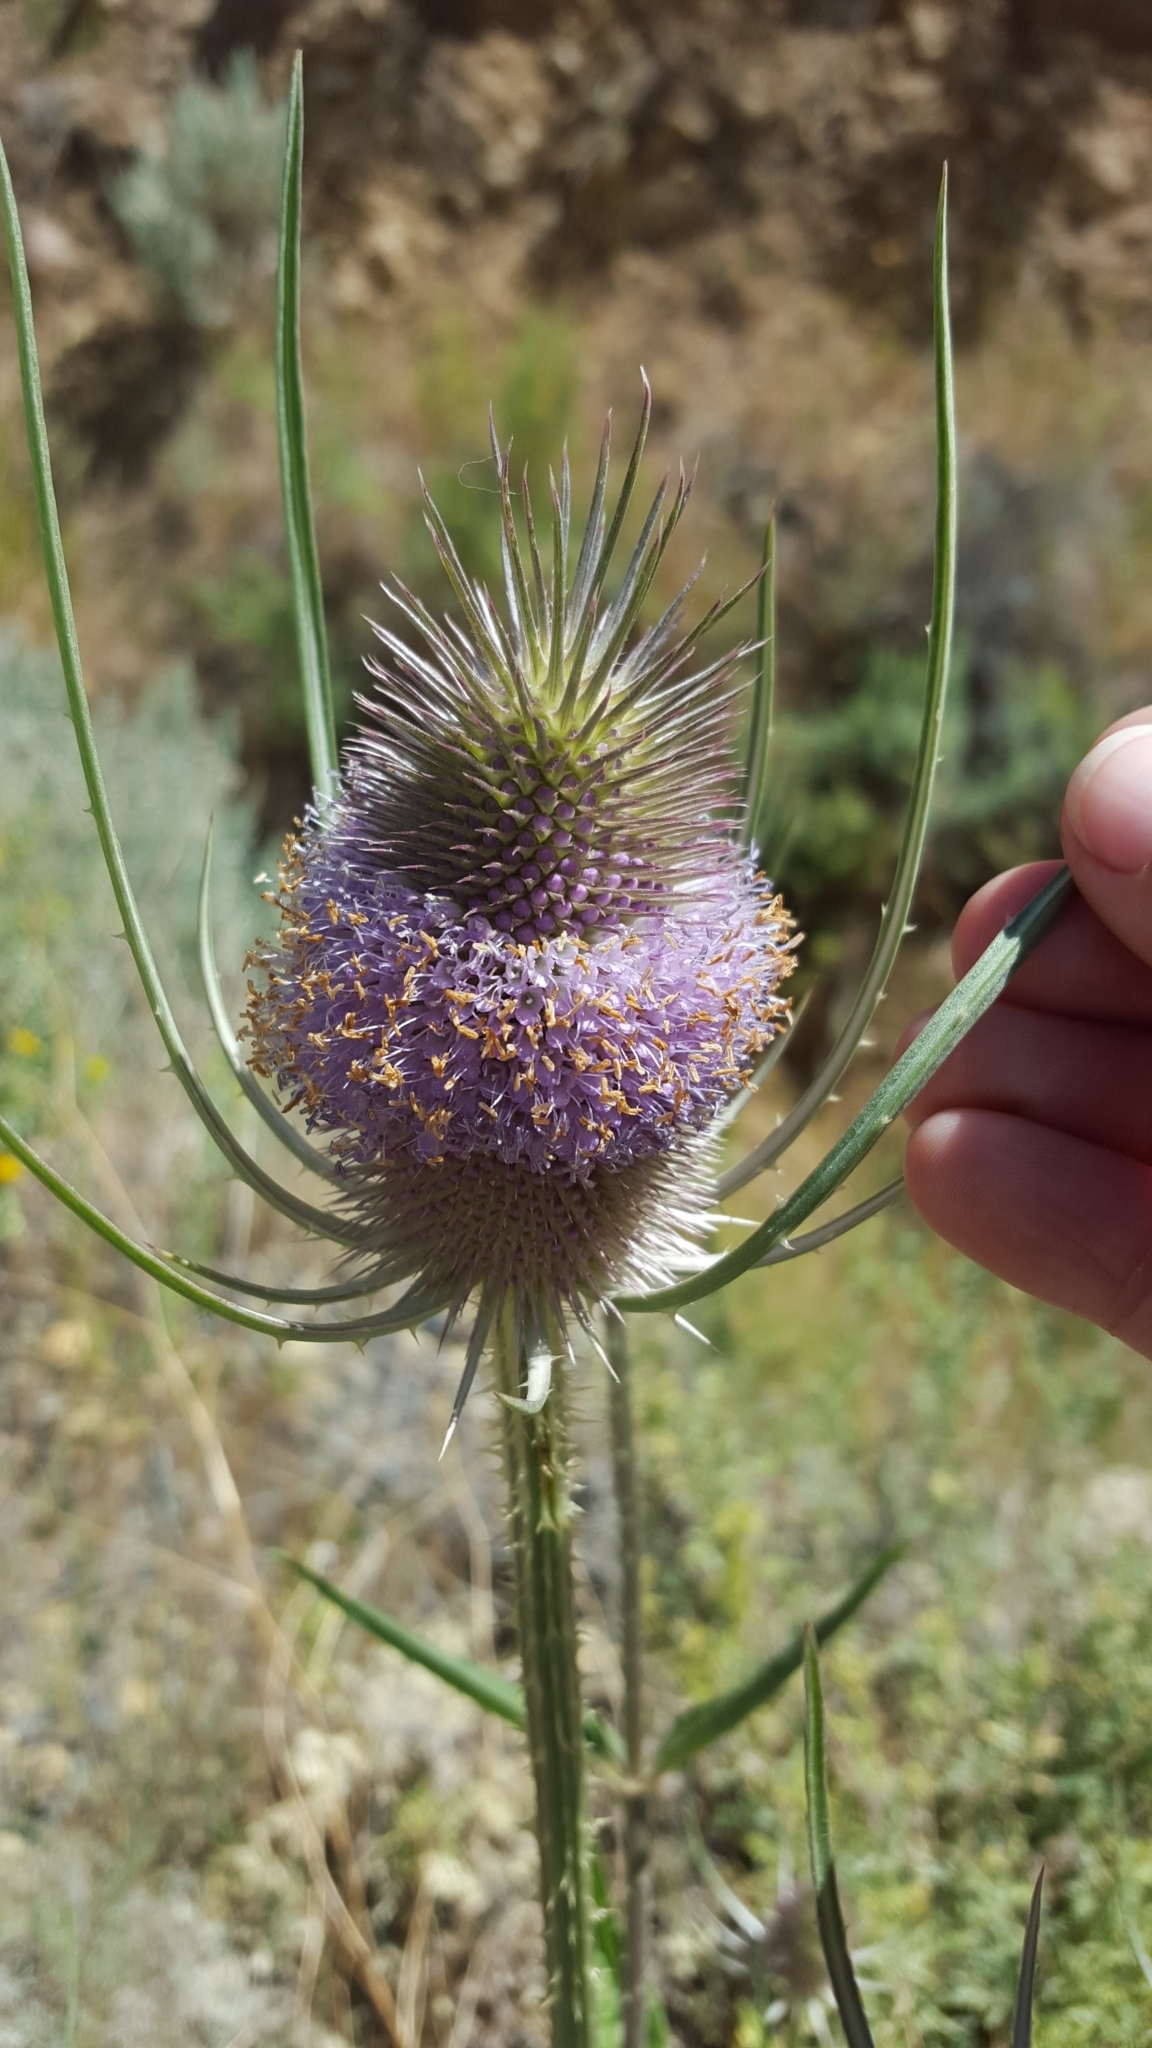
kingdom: Plantae
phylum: Tracheophyta
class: Magnoliopsida
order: Dipsacales
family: Caprifoliaceae
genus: Dipsacus
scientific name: Dipsacus fullonum
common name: Teasel
